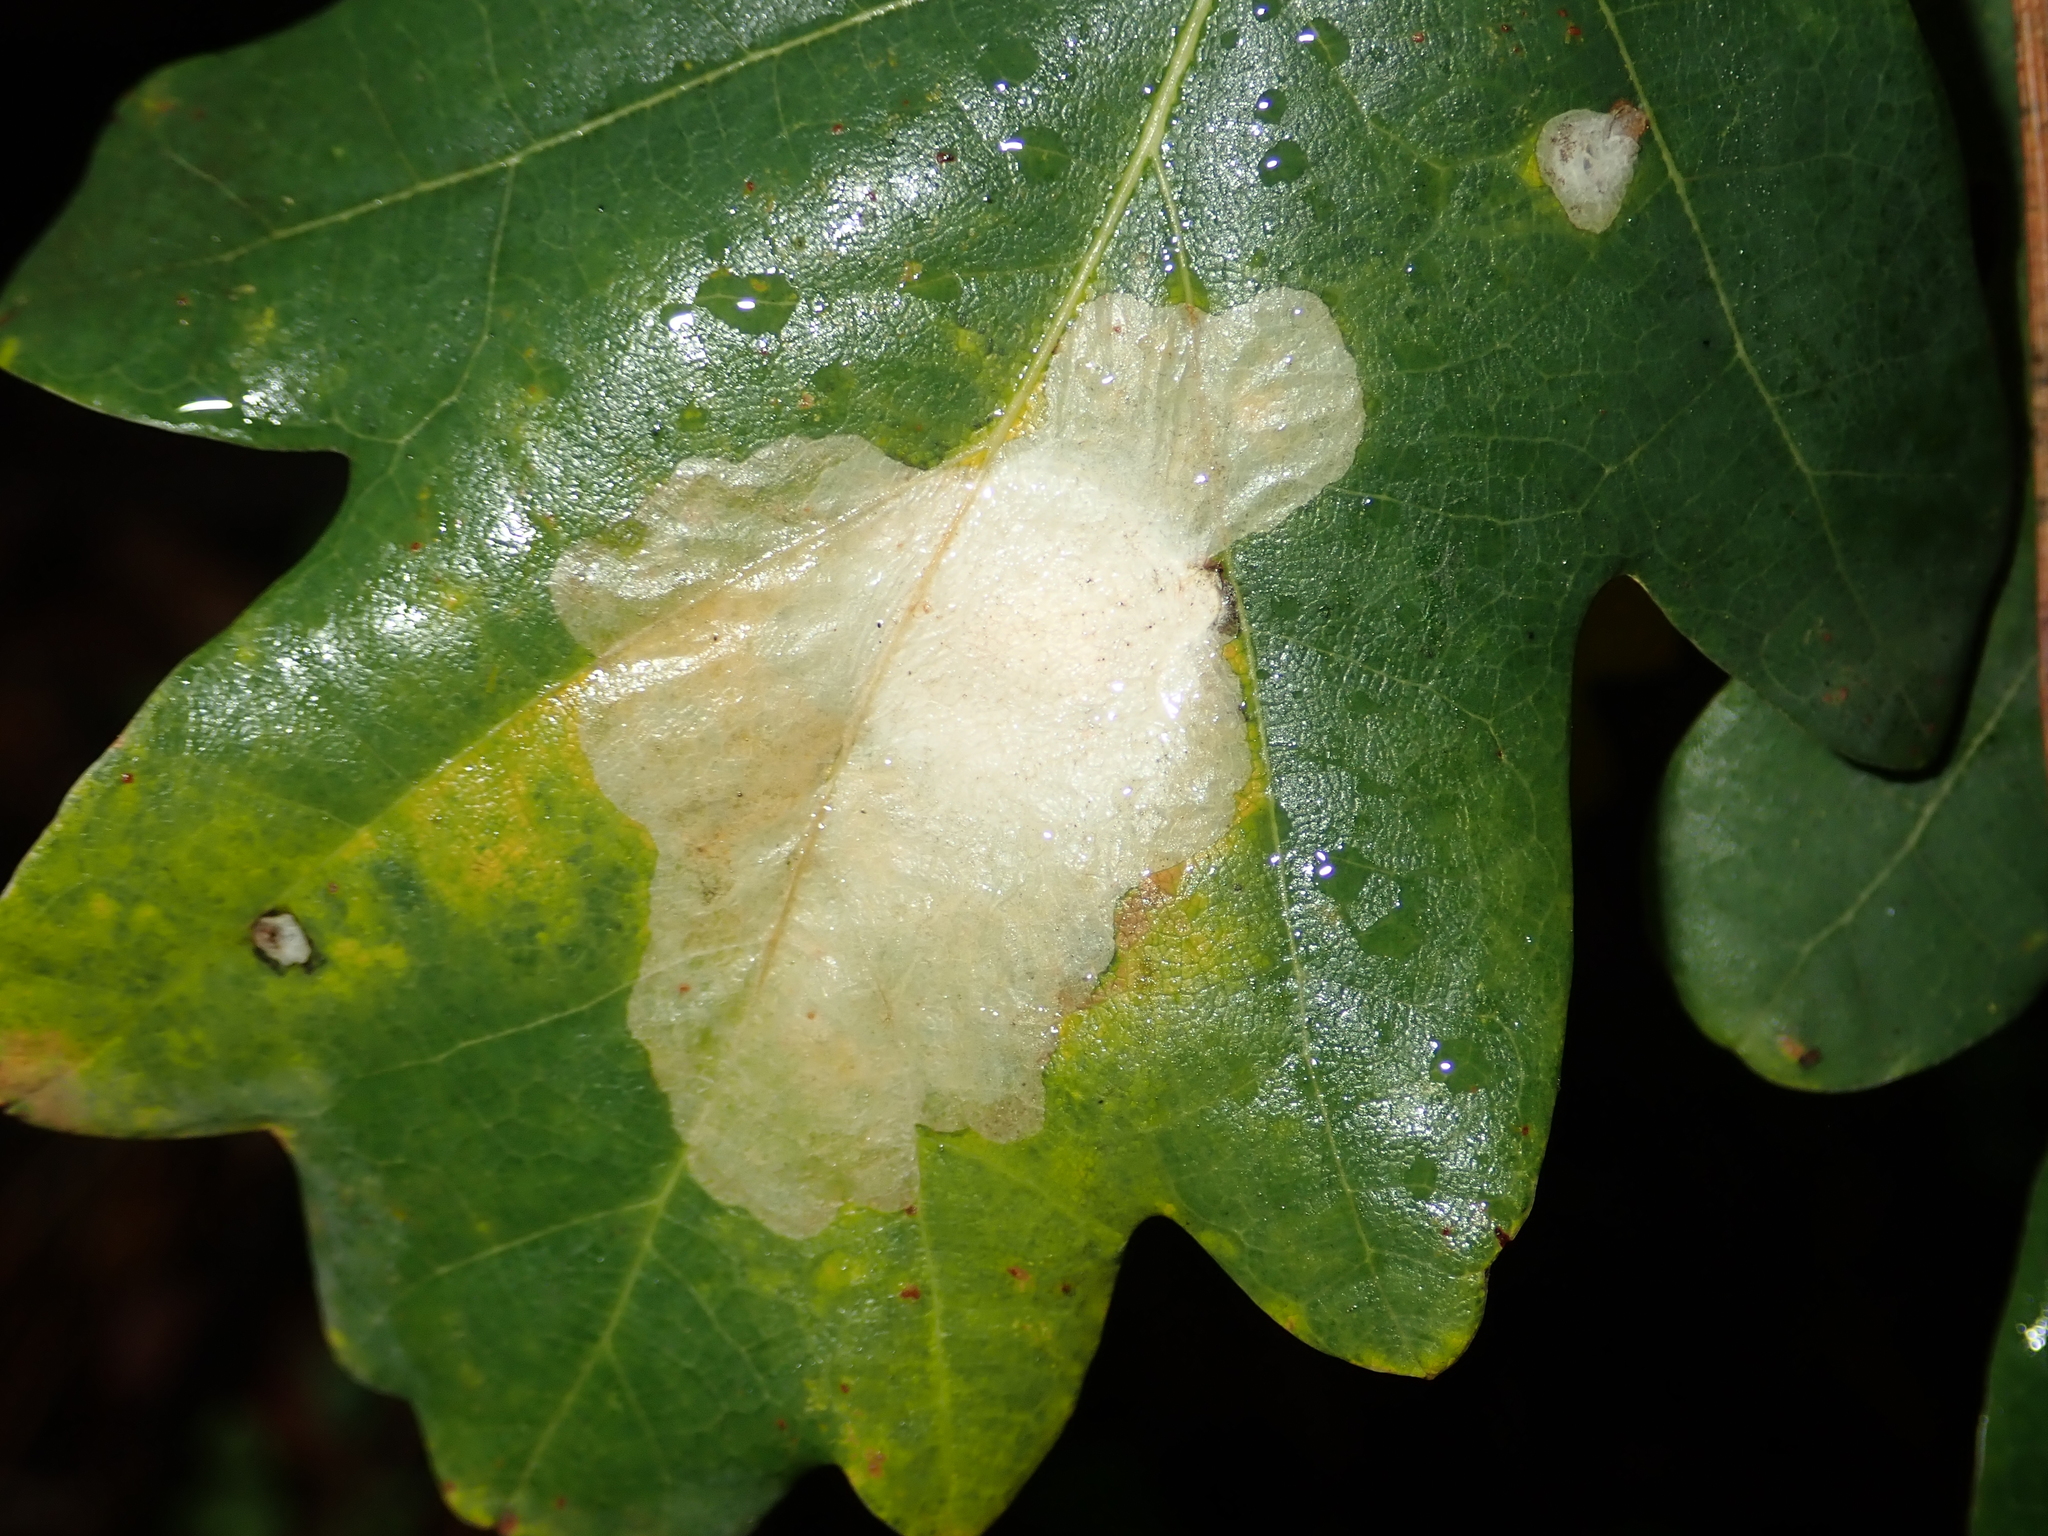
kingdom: Animalia
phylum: Arthropoda
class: Insecta
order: Lepidoptera
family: Tischeriidae
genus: Tischeria
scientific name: Tischeria ekebladella
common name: Oak carl
